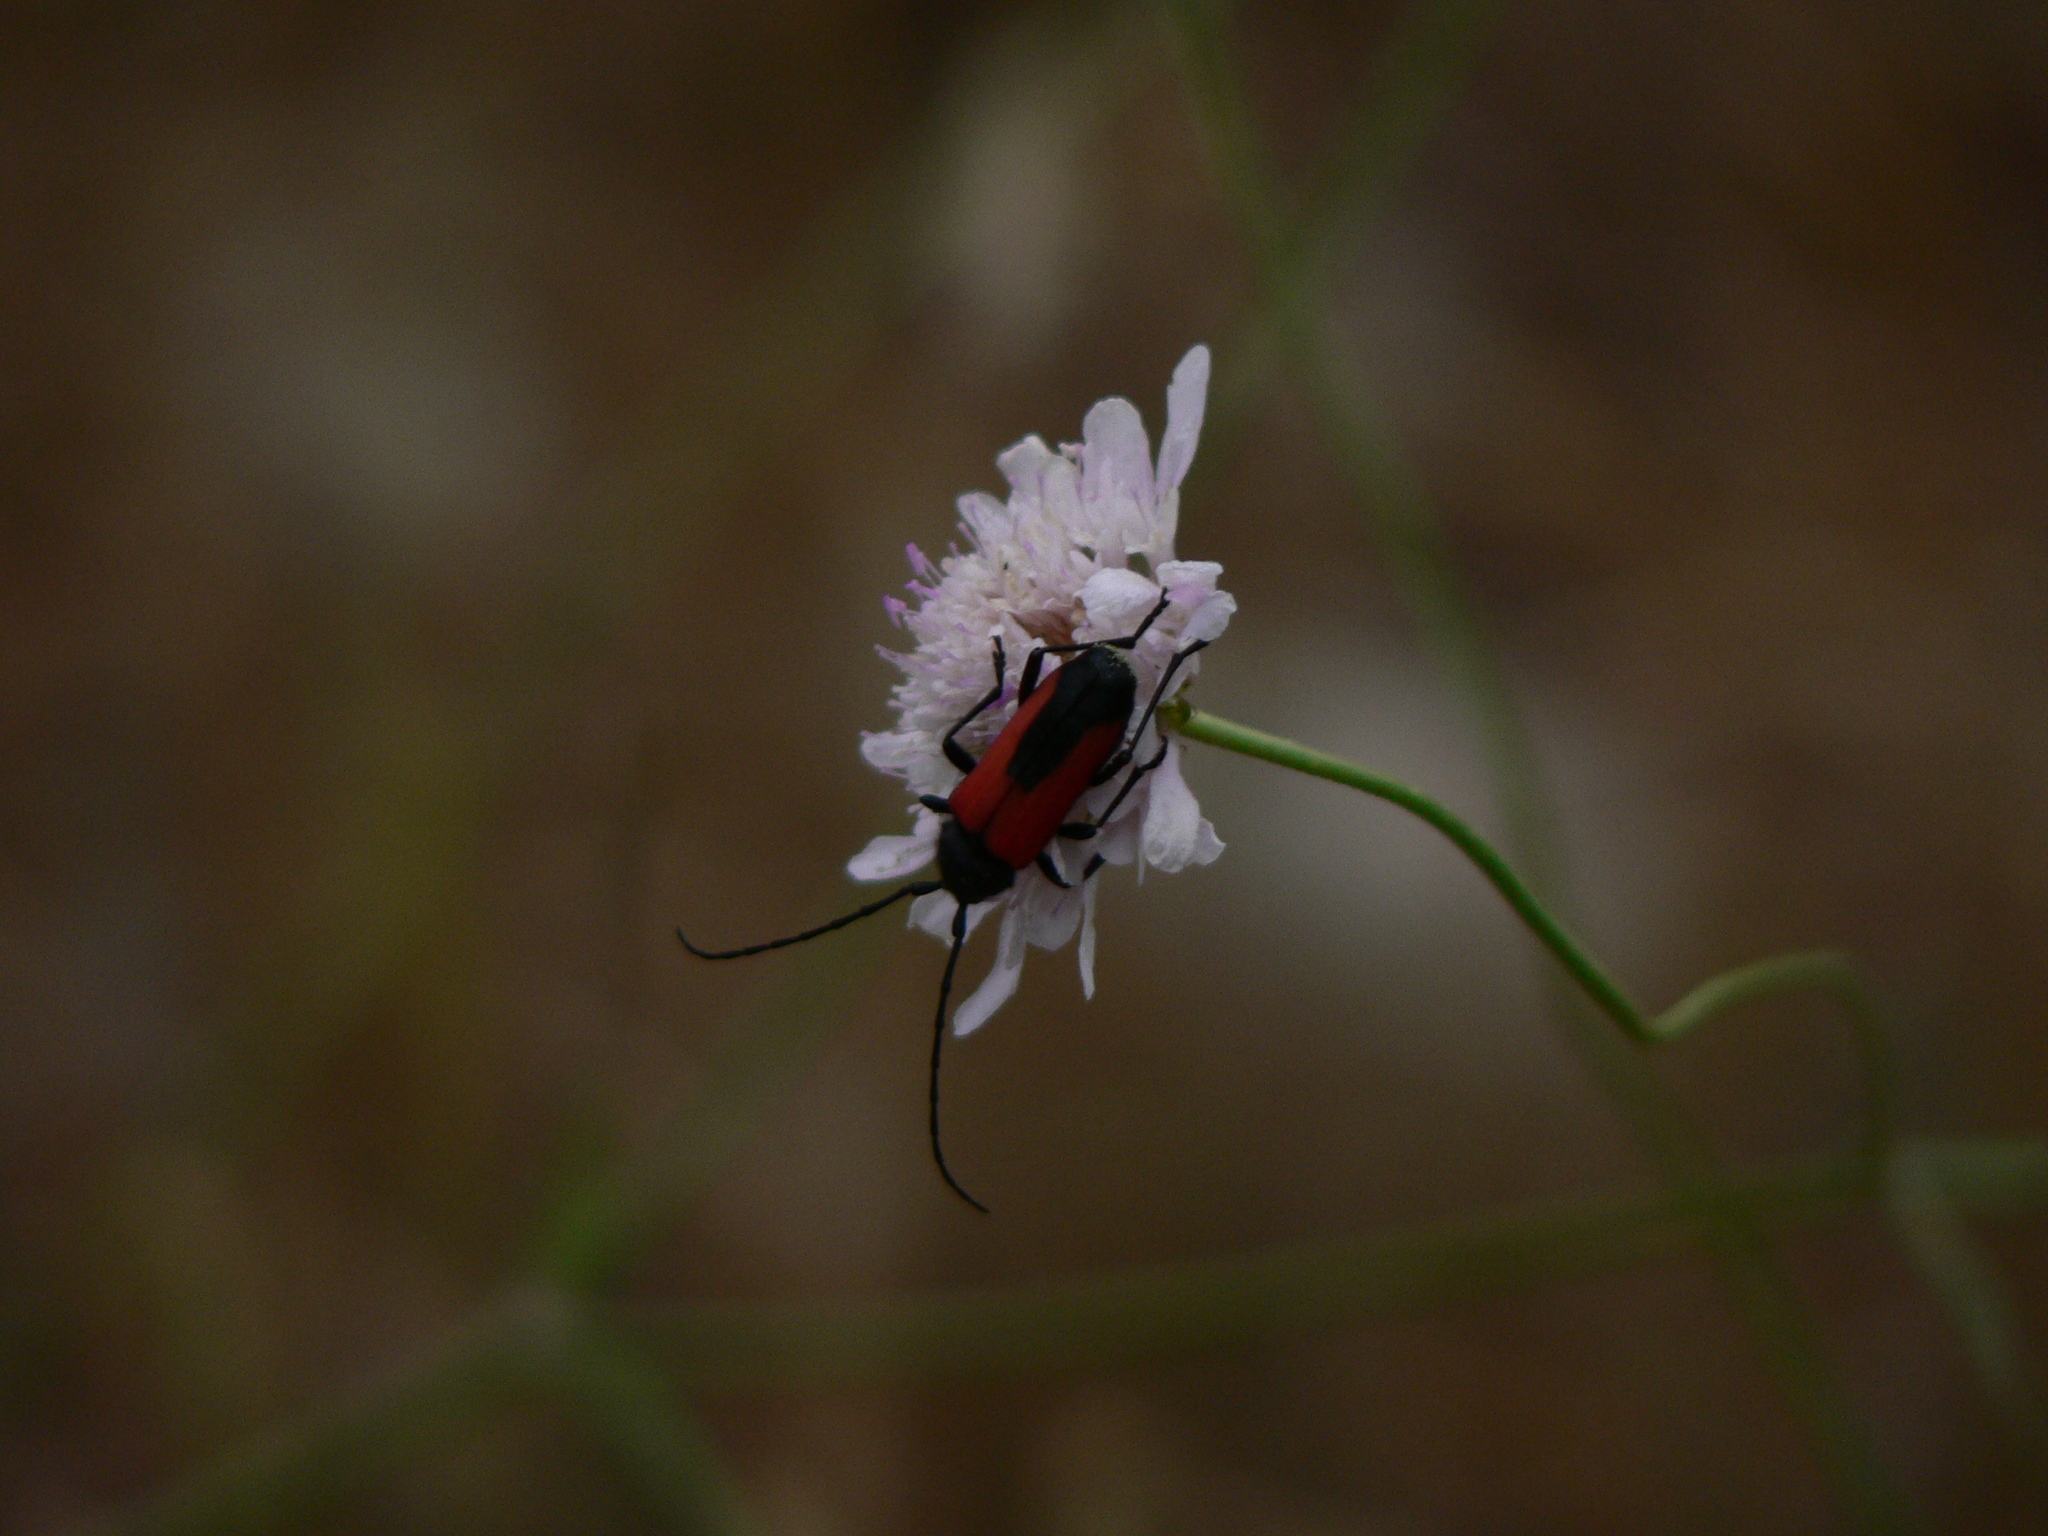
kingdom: Animalia
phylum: Arthropoda
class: Insecta
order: Coleoptera
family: Cerambycidae
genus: Purpuricenus
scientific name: Purpuricenus budensis
